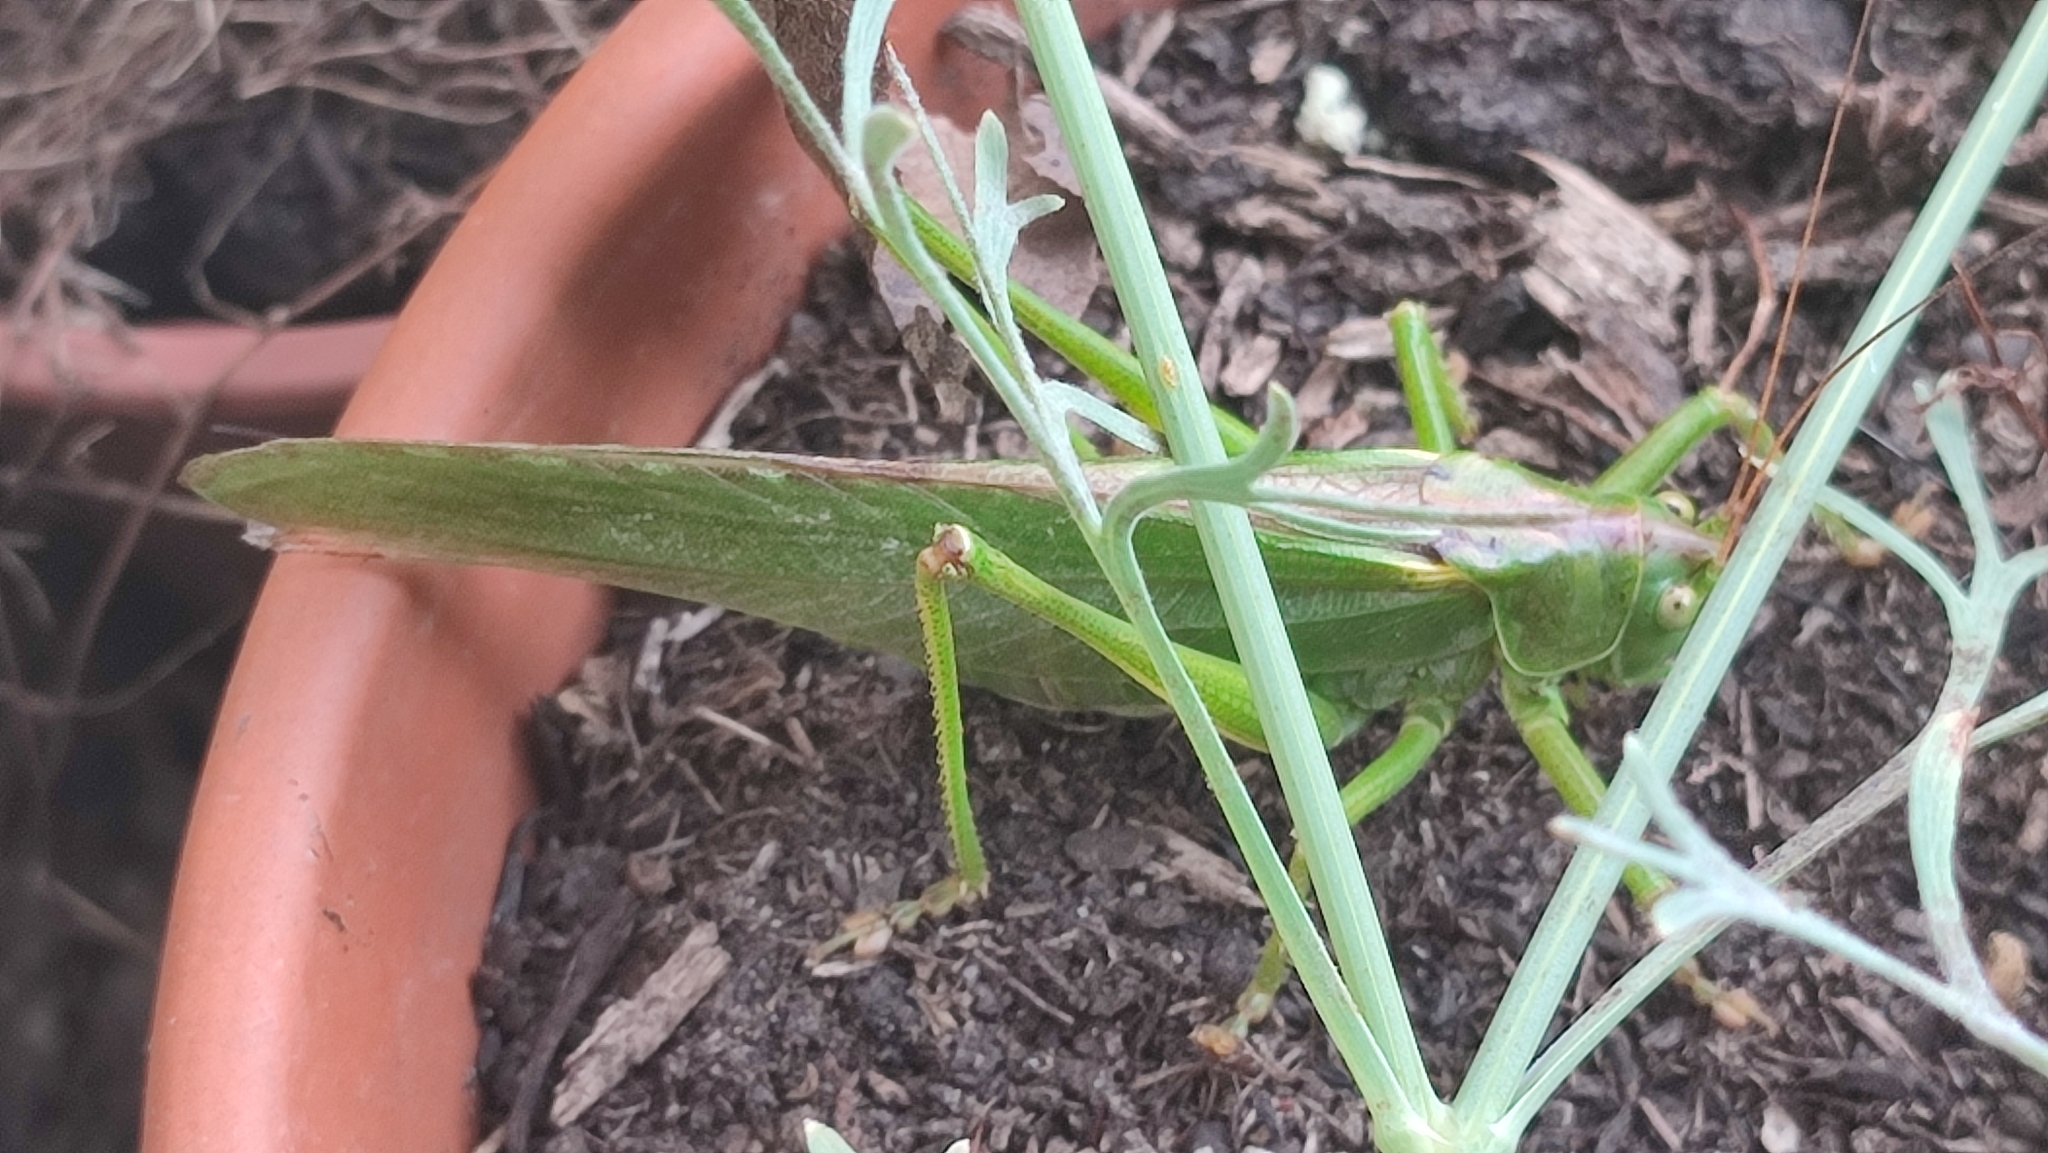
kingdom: Animalia
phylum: Arthropoda
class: Insecta
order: Orthoptera
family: Tettigoniidae
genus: Tettigonia
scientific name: Tettigonia viridissima
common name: Great green bush-cricket
